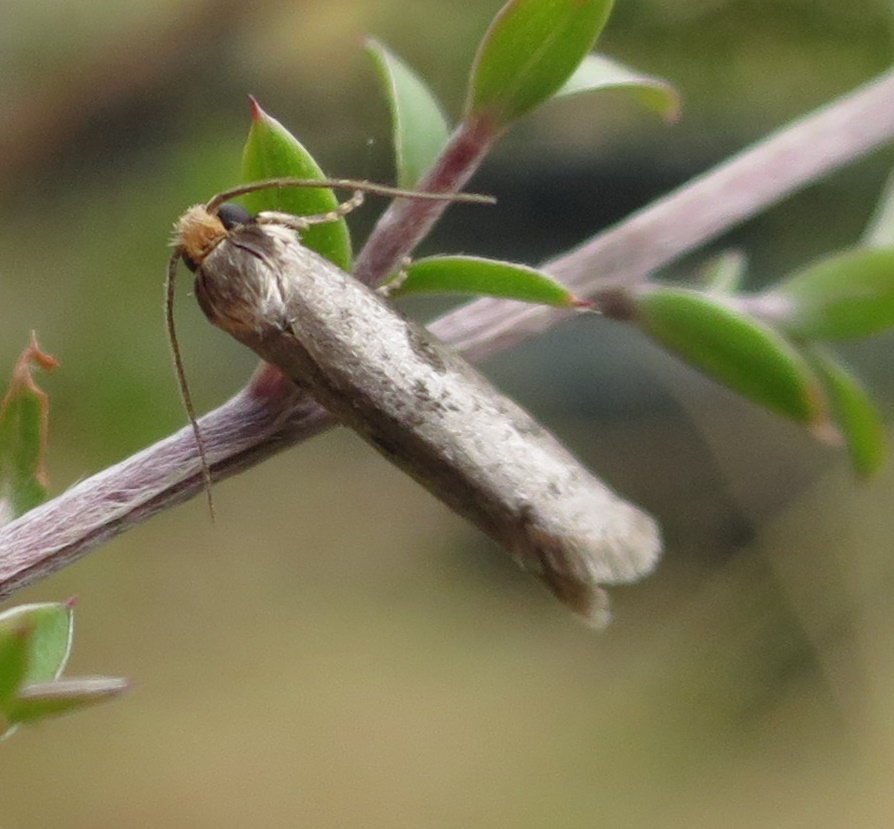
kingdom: Animalia
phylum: Arthropoda
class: Insecta
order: Lepidoptera
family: Psychidae
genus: Lepidoscia
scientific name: Lepidoscia protorna
